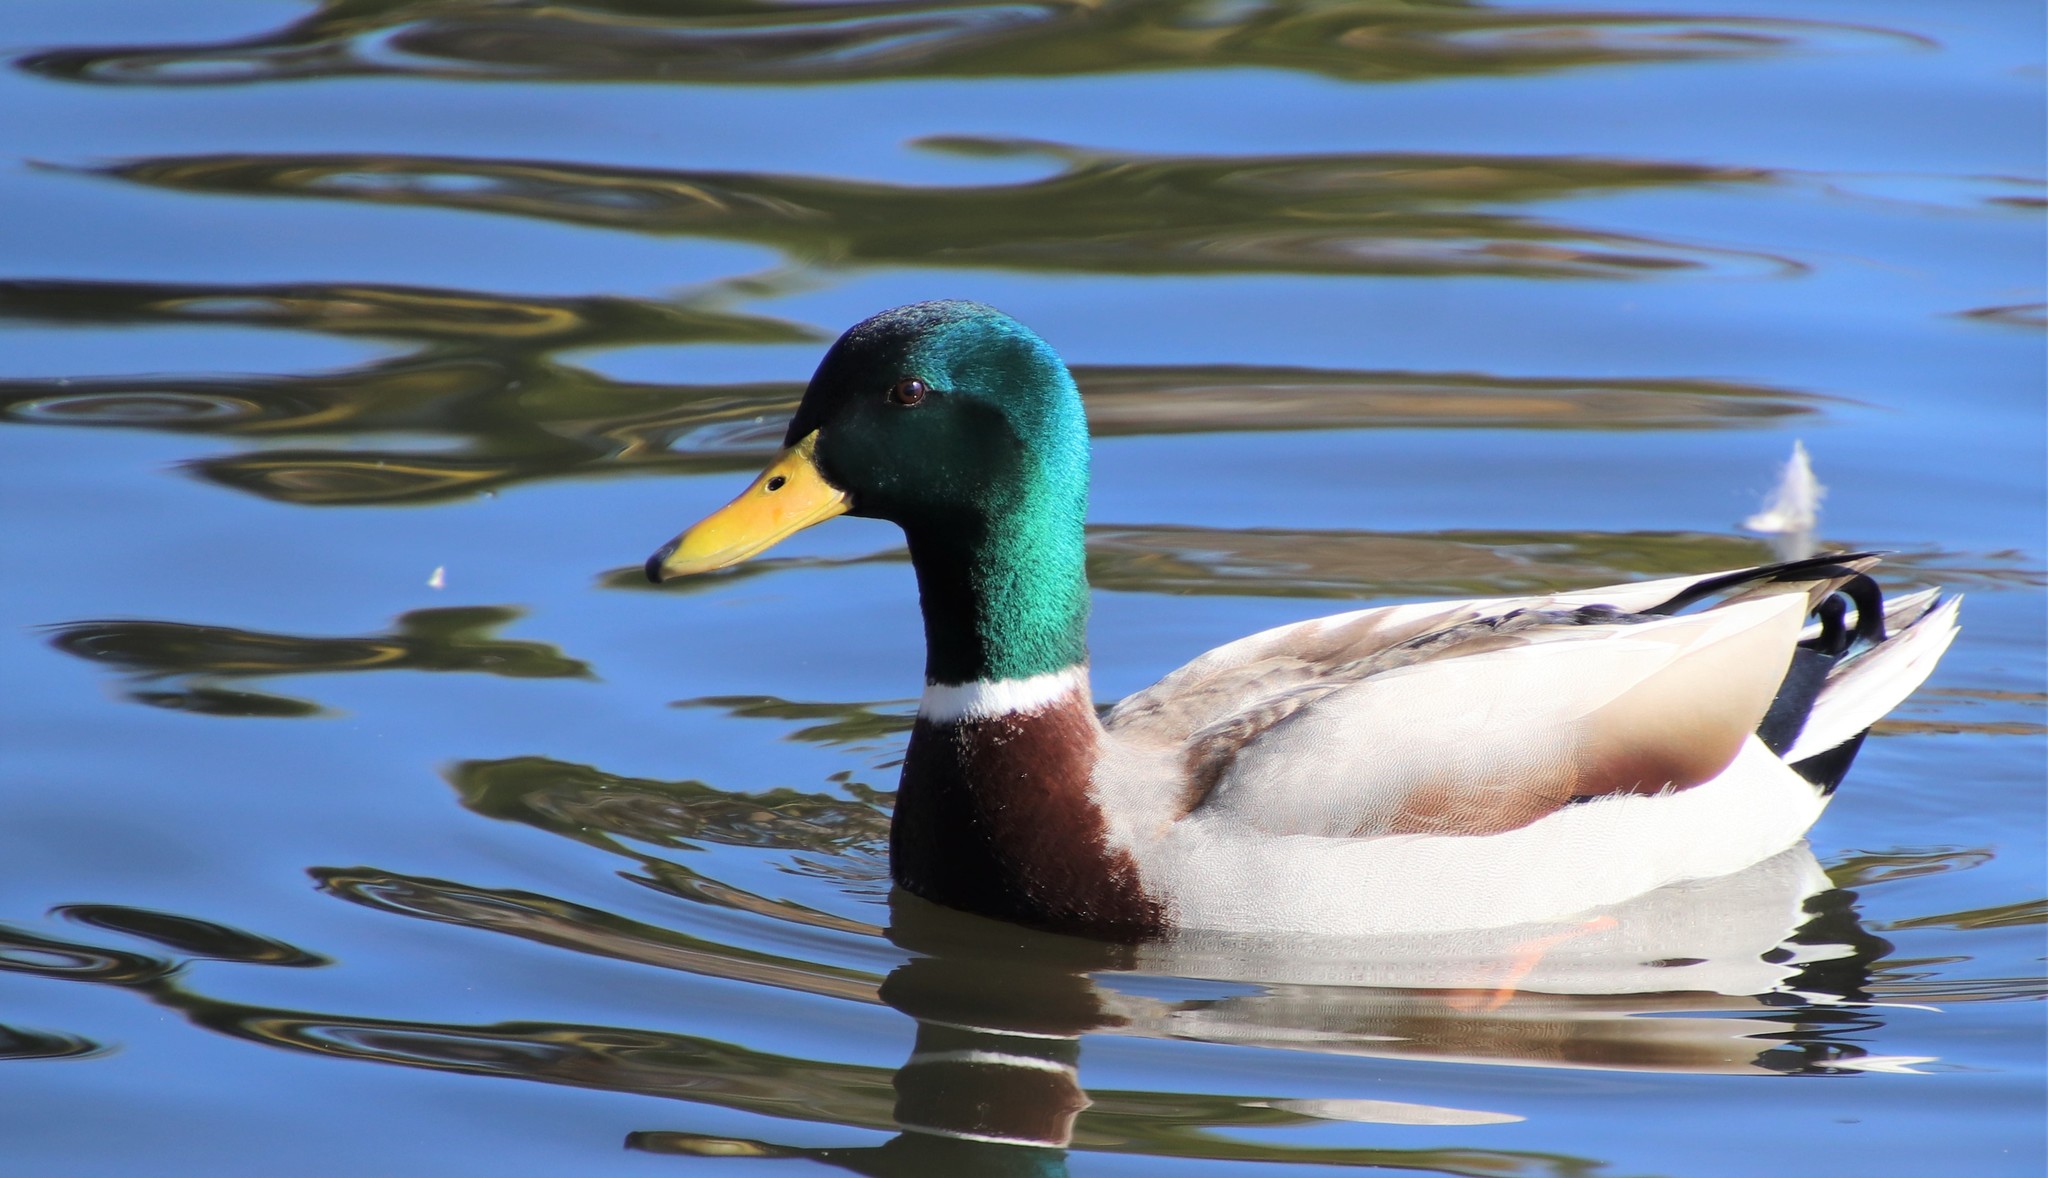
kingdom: Animalia
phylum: Chordata
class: Aves
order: Anseriformes
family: Anatidae
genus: Anas
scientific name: Anas platyrhynchos
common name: Mallard
